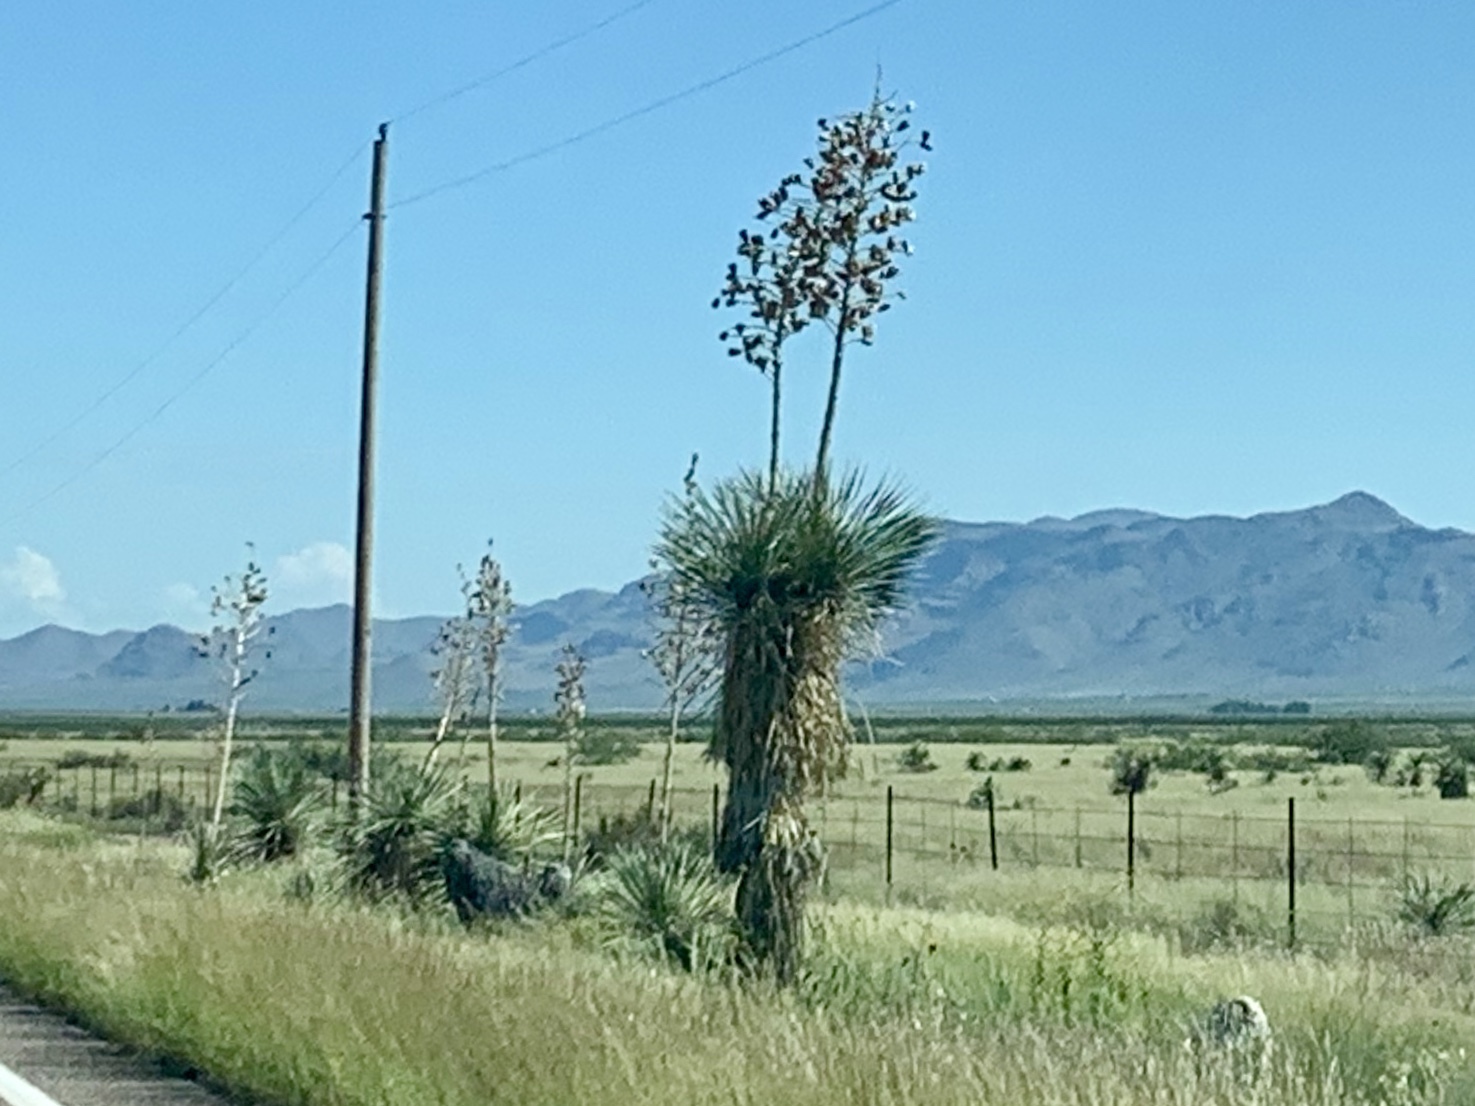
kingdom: Plantae
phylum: Tracheophyta
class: Liliopsida
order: Asparagales
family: Asparagaceae
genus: Yucca
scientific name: Yucca elata
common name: Palmella
